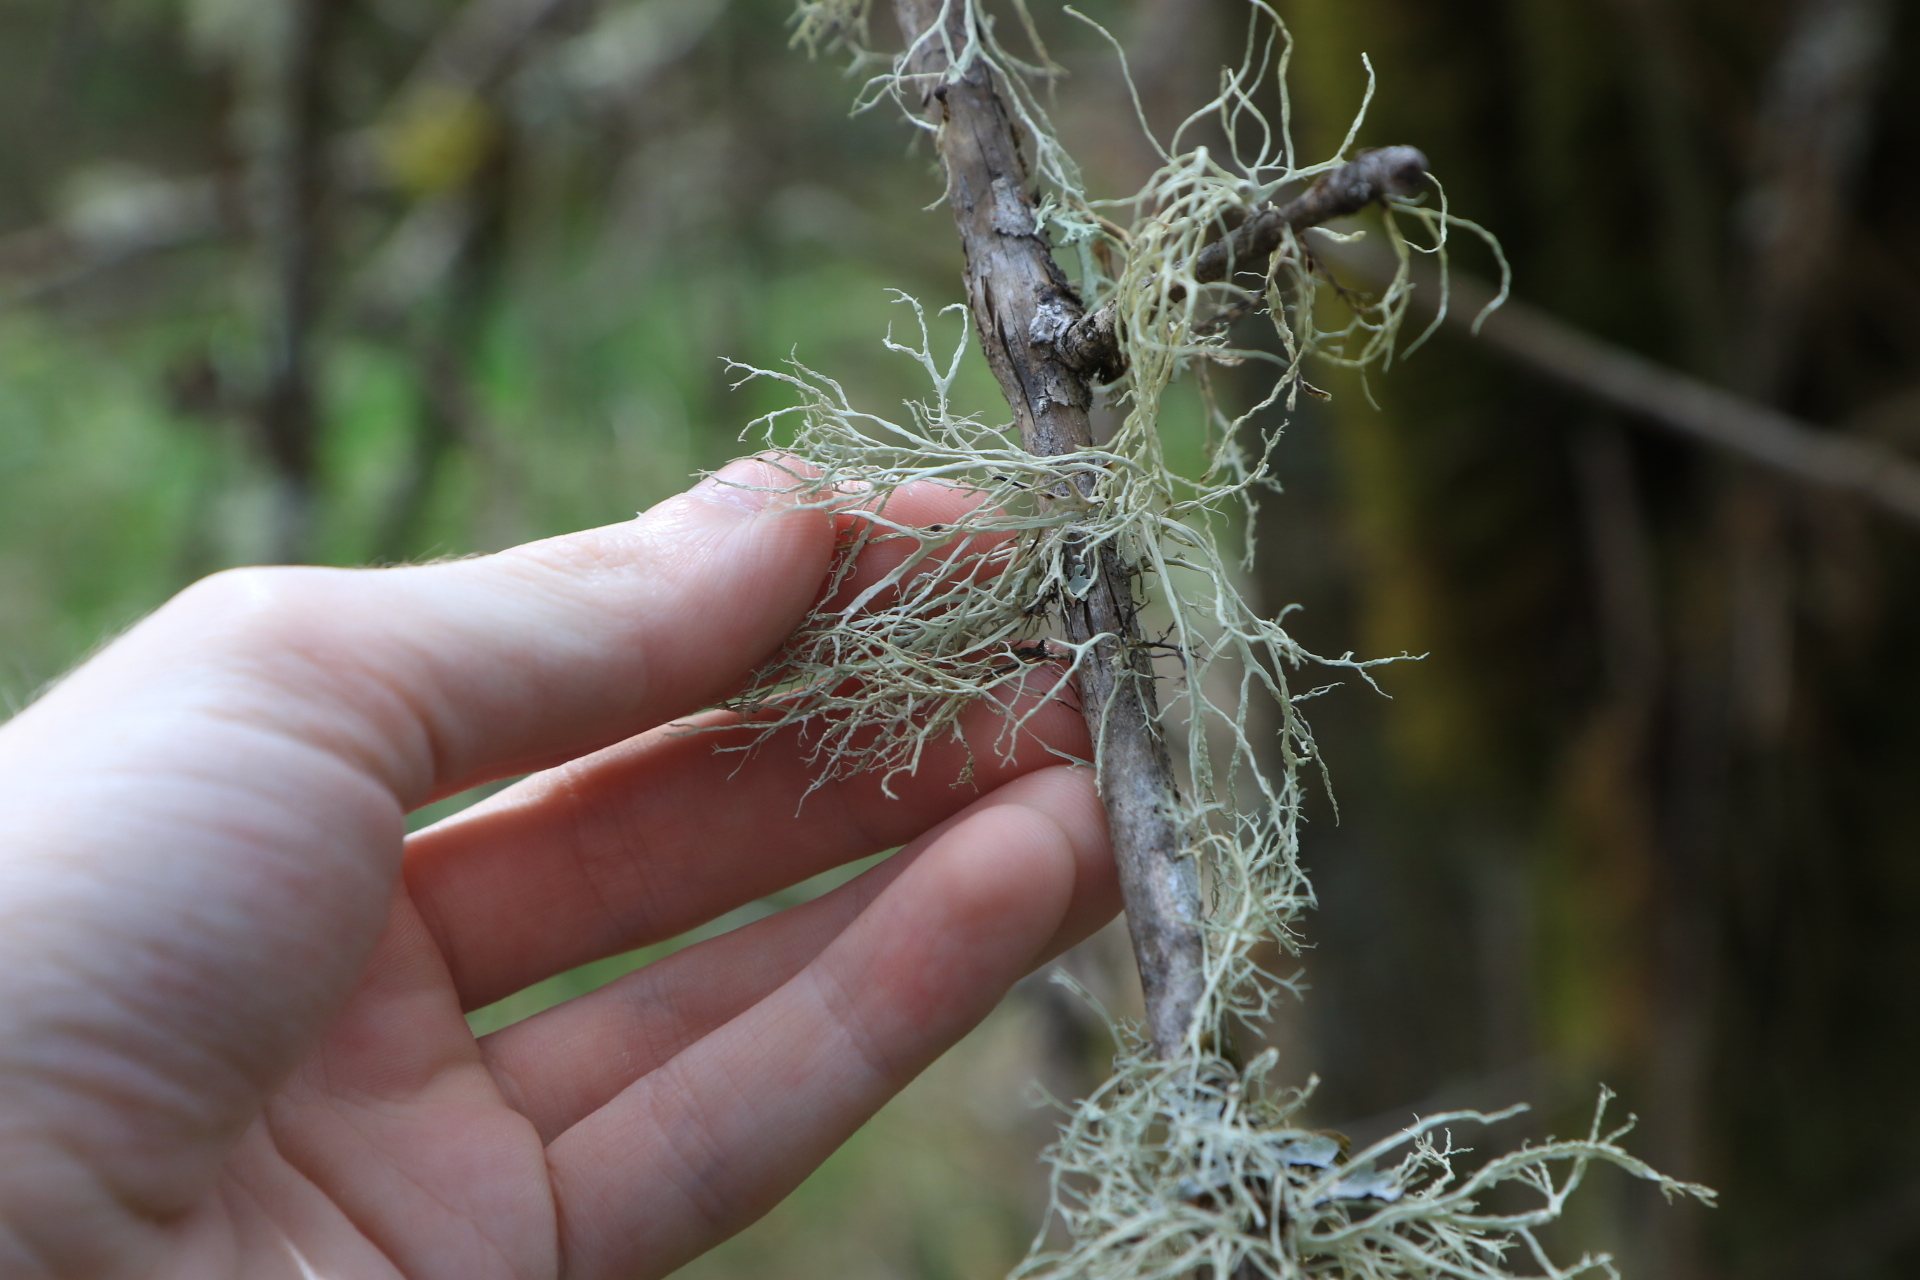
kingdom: Fungi
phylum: Ascomycota
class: Lecanoromycetes
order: Lecanorales
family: Ramalinaceae
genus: Ramalina
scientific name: Ramalina farinacea
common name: Farinose cartilage lichen
